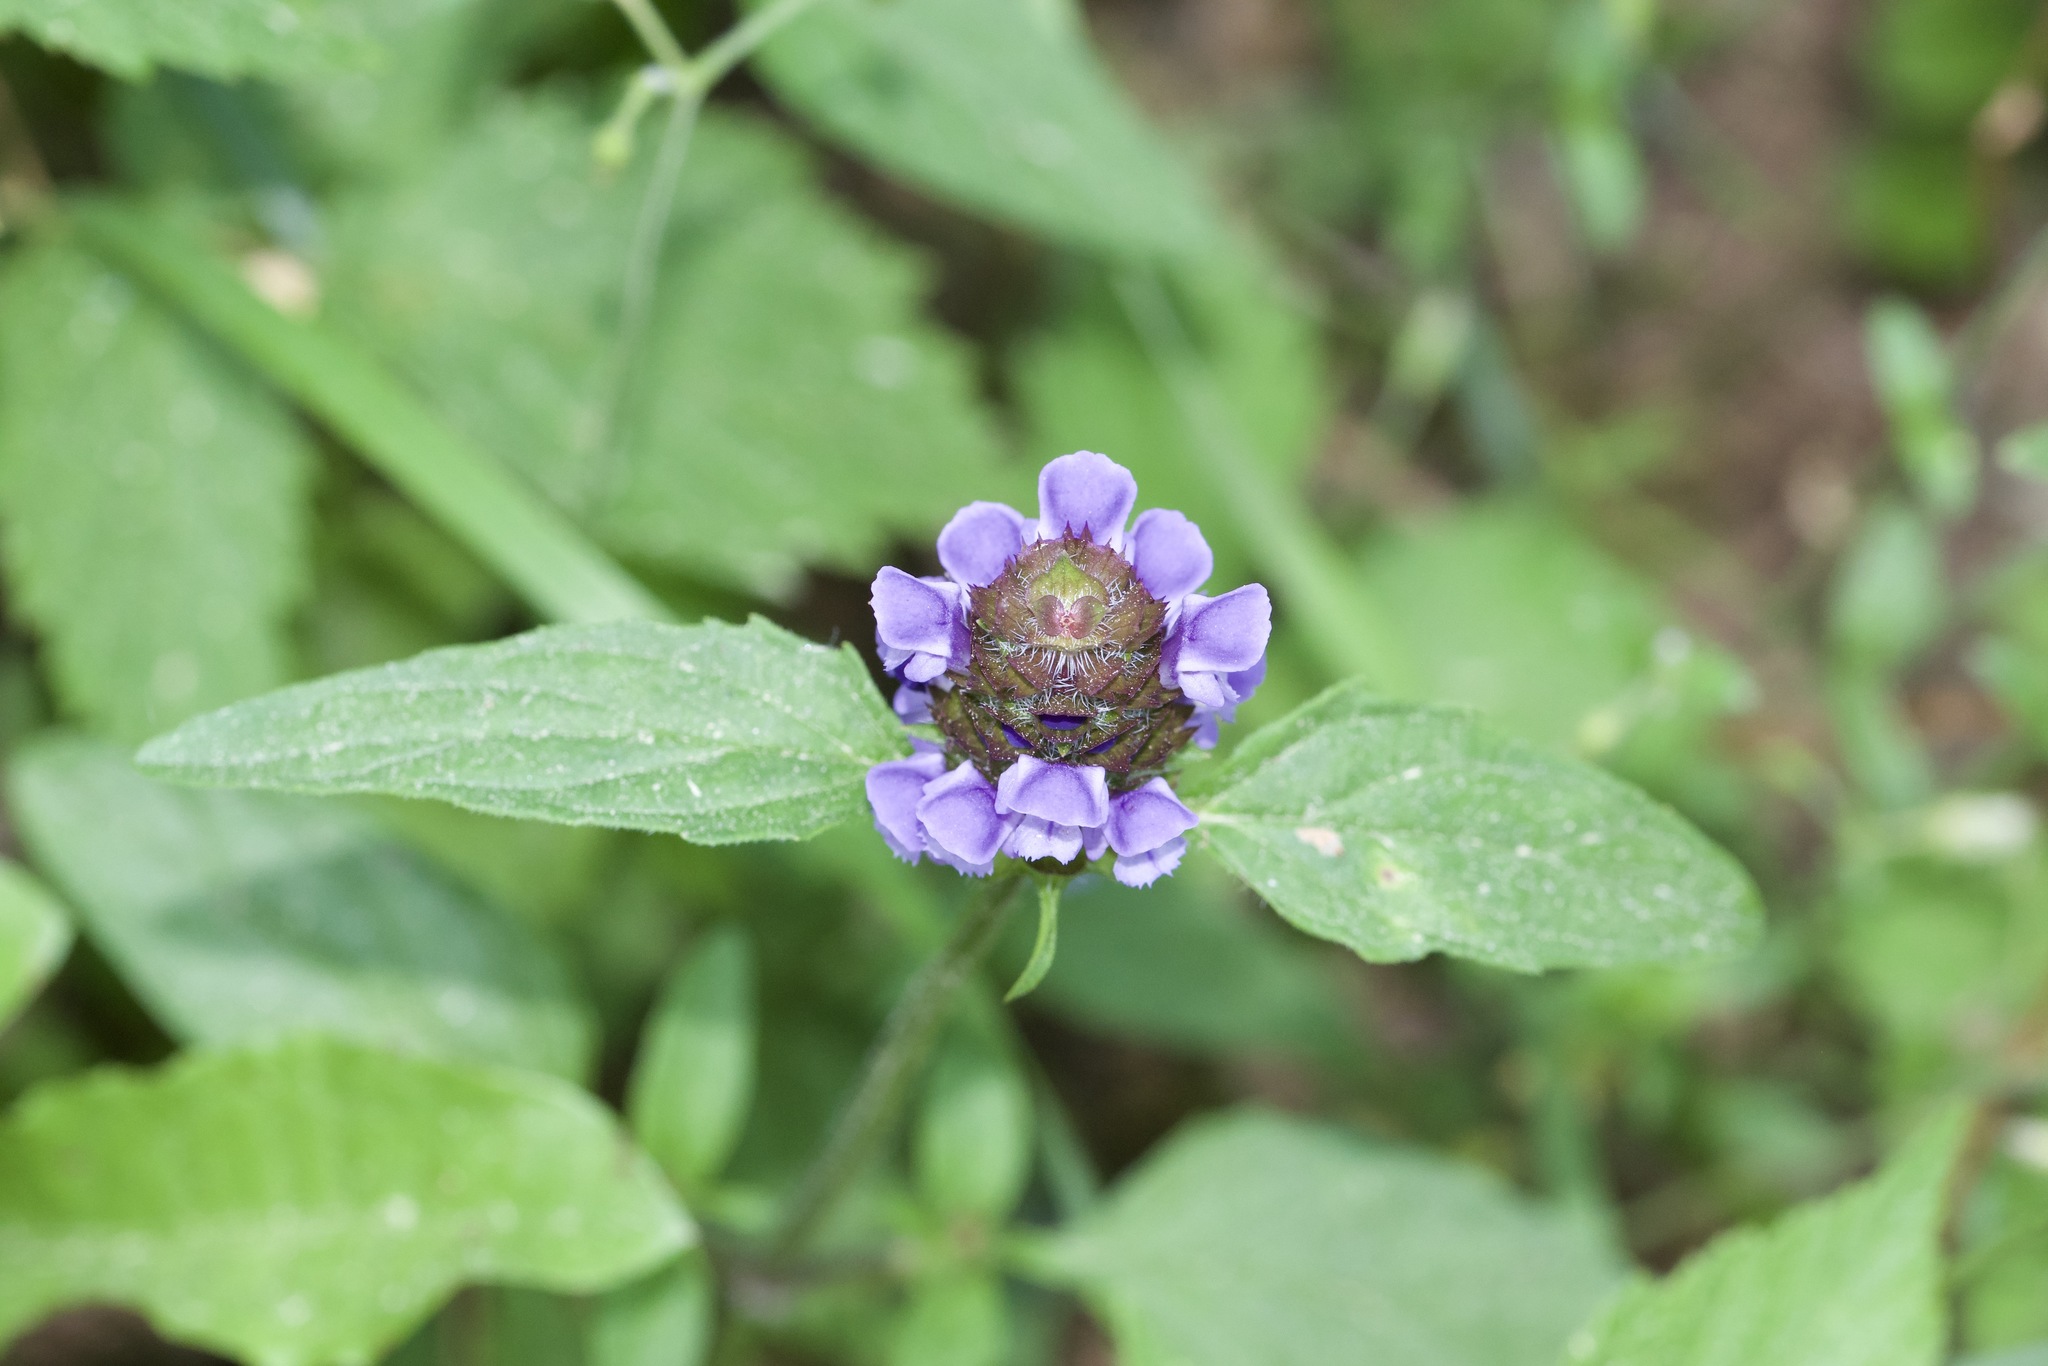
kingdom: Plantae
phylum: Tracheophyta
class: Magnoliopsida
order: Lamiales
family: Lamiaceae
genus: Prunella
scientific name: Prunella vulgaris
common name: Heal-all
